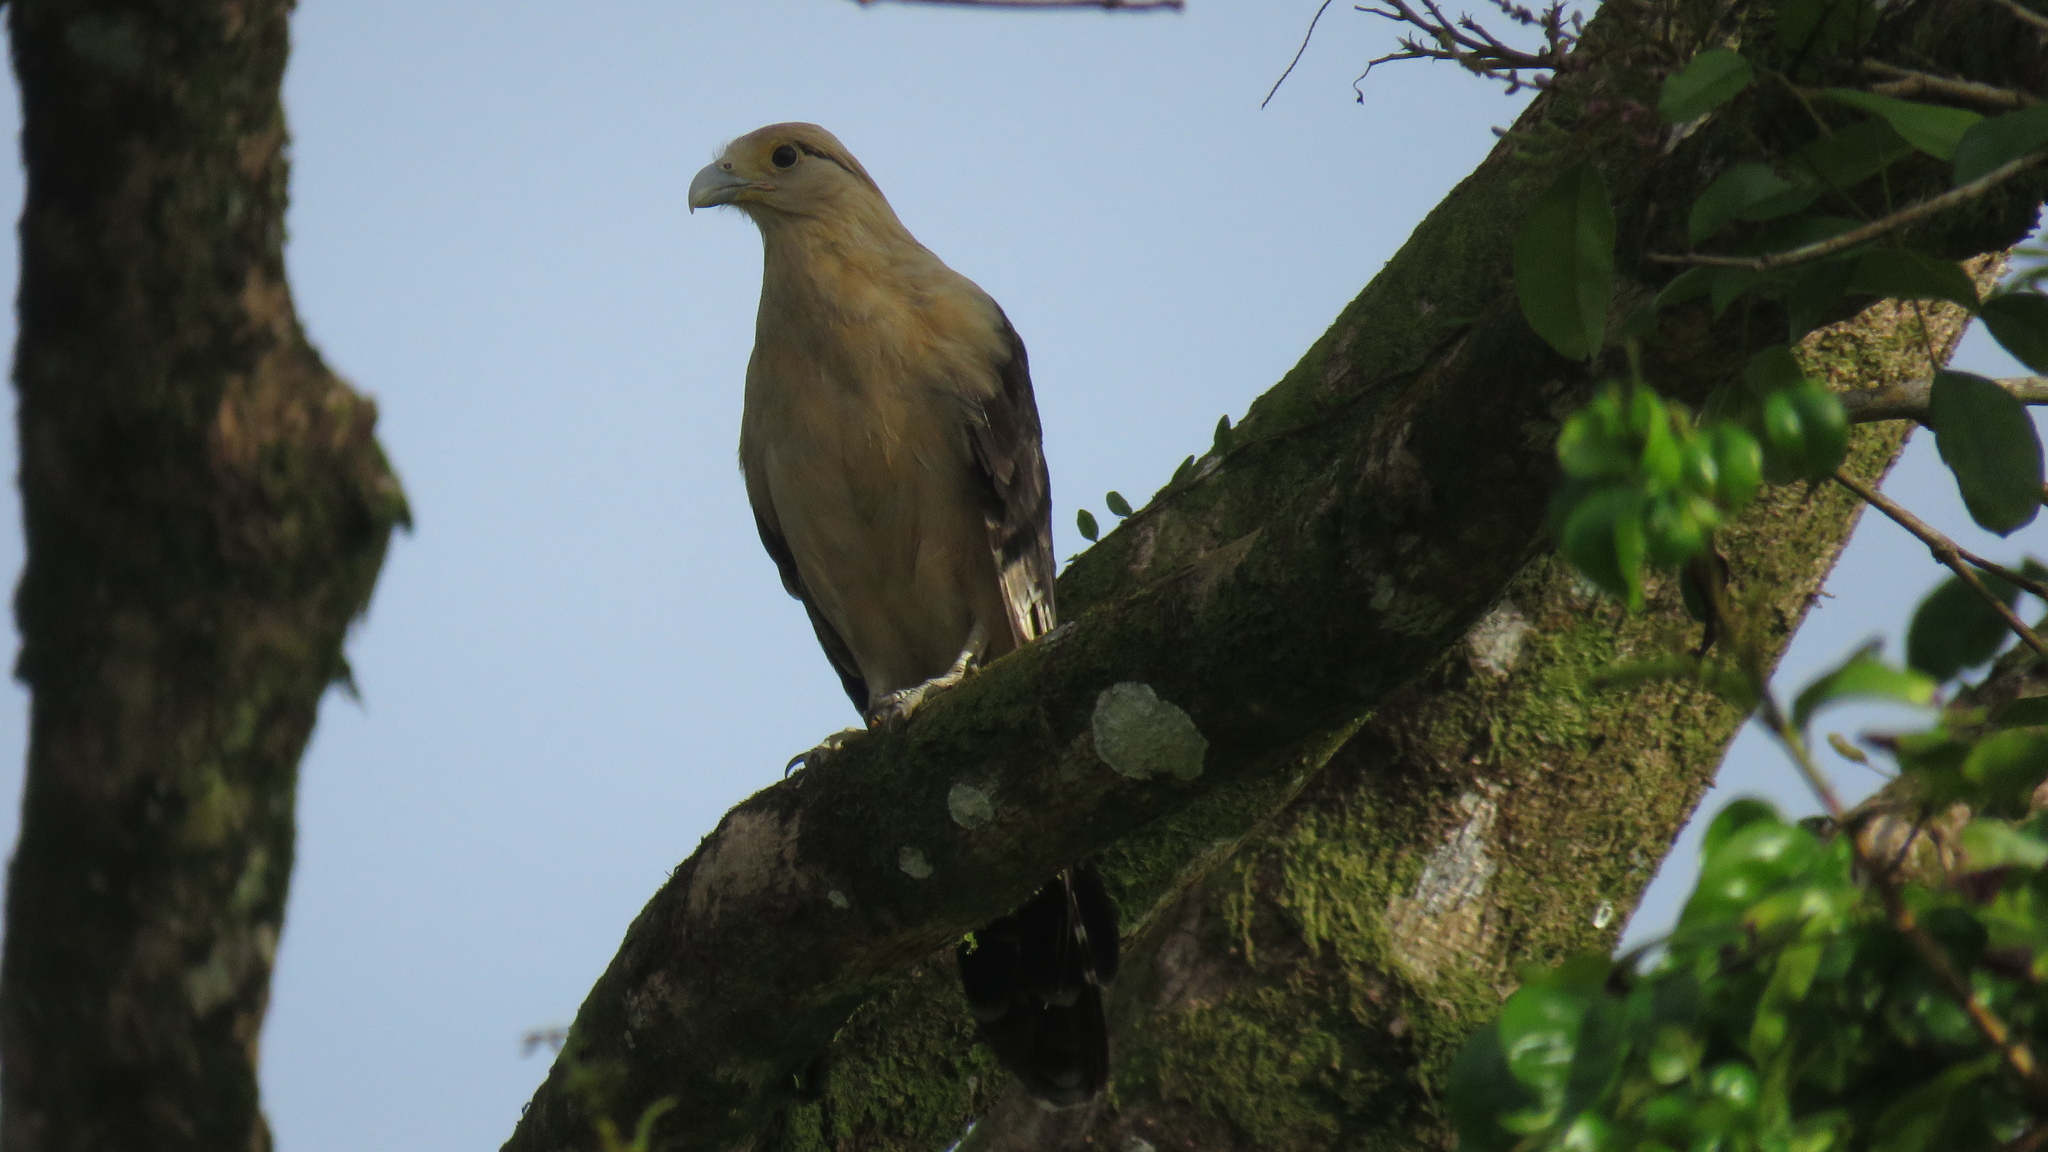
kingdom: Animalia
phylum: Chordata
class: Aves
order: Falconiformes
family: Falconidae
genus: Daptrius
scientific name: Daptrius
